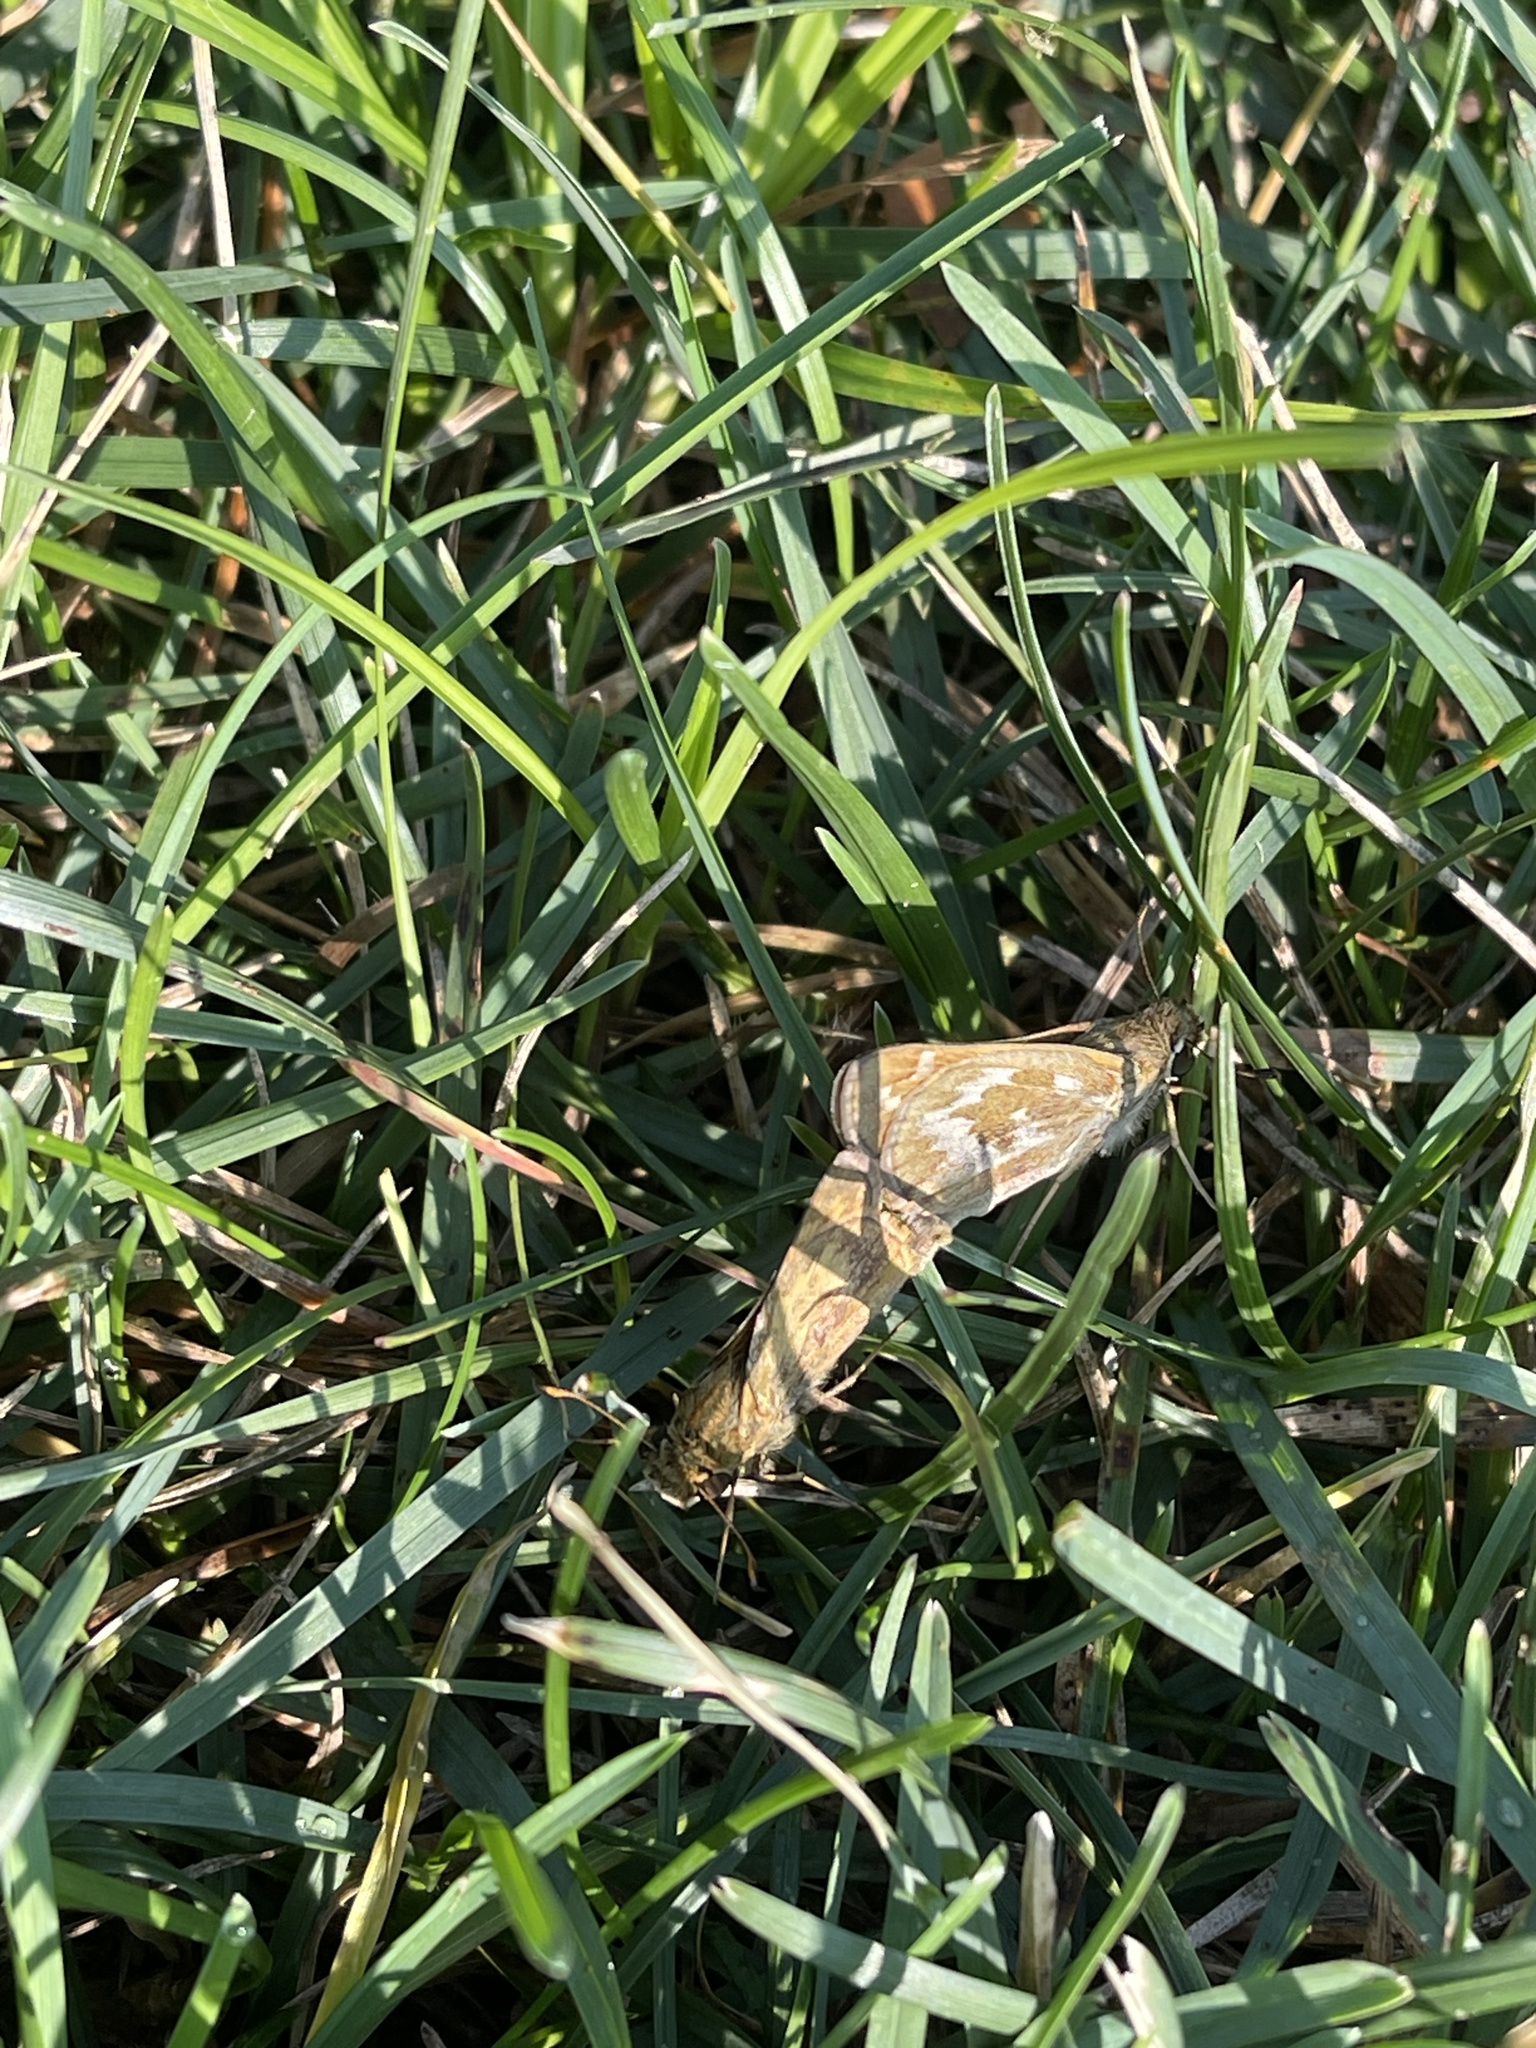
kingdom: Animalia
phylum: Arthropoda
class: Insecta
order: Lepidoptera
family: Hesperiidae
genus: Atalopedes
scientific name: Atalopedes
